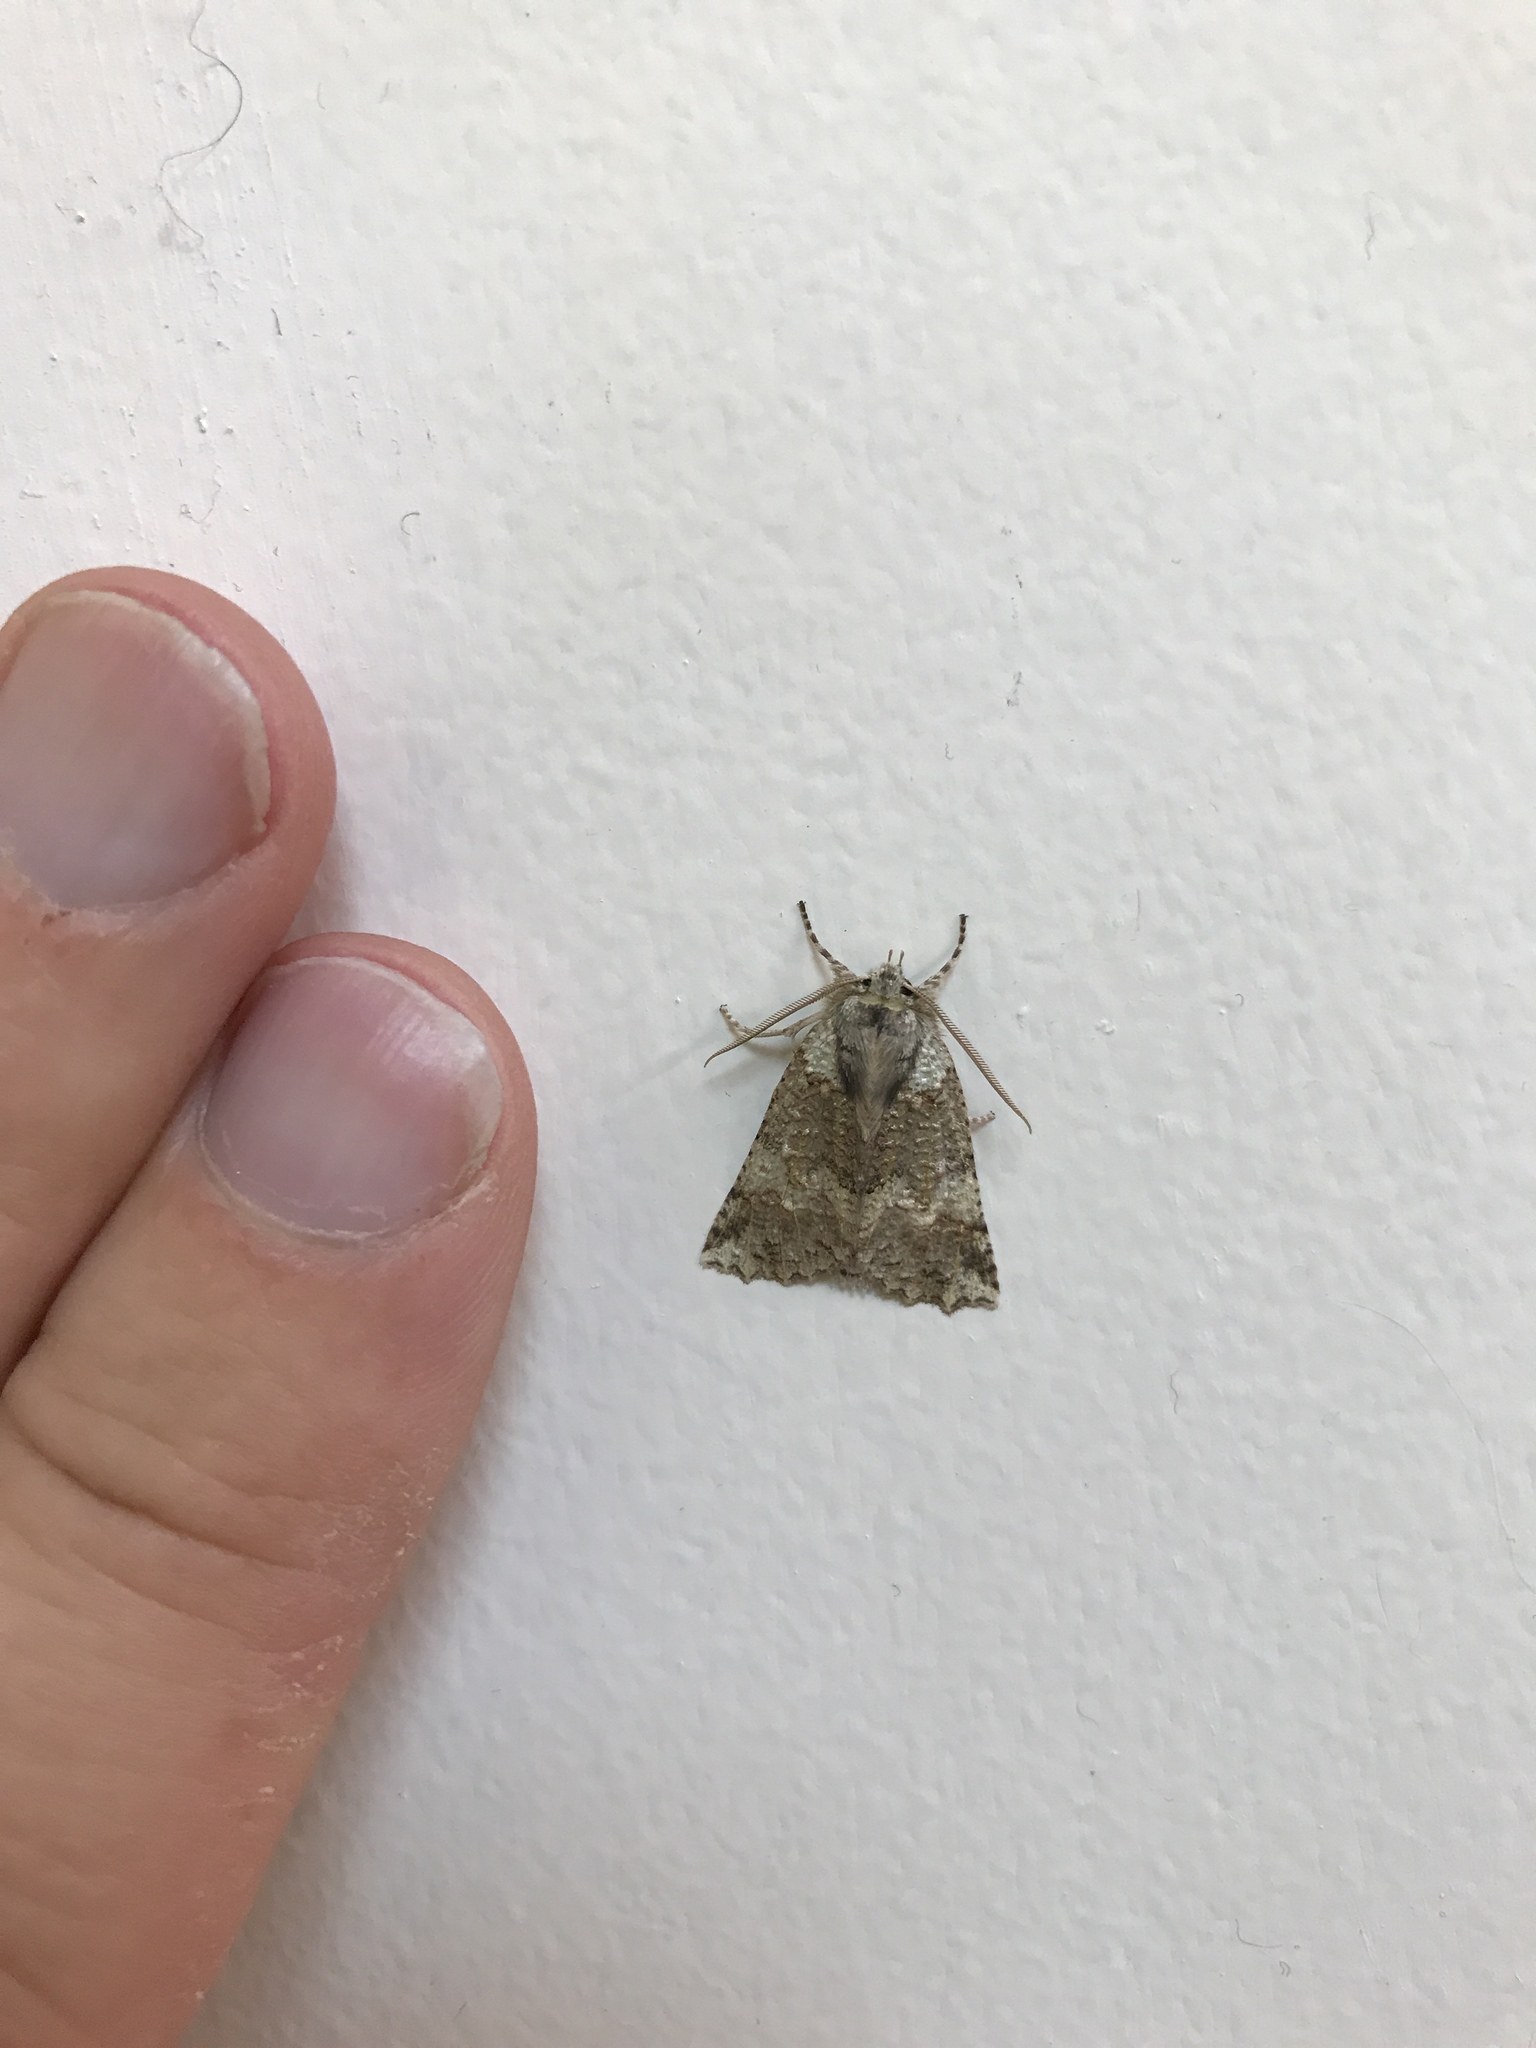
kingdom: Animalia
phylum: Arthropoda
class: Insecta
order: Lepidoptera
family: Geometridae
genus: Declana
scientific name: Declana floccosa
